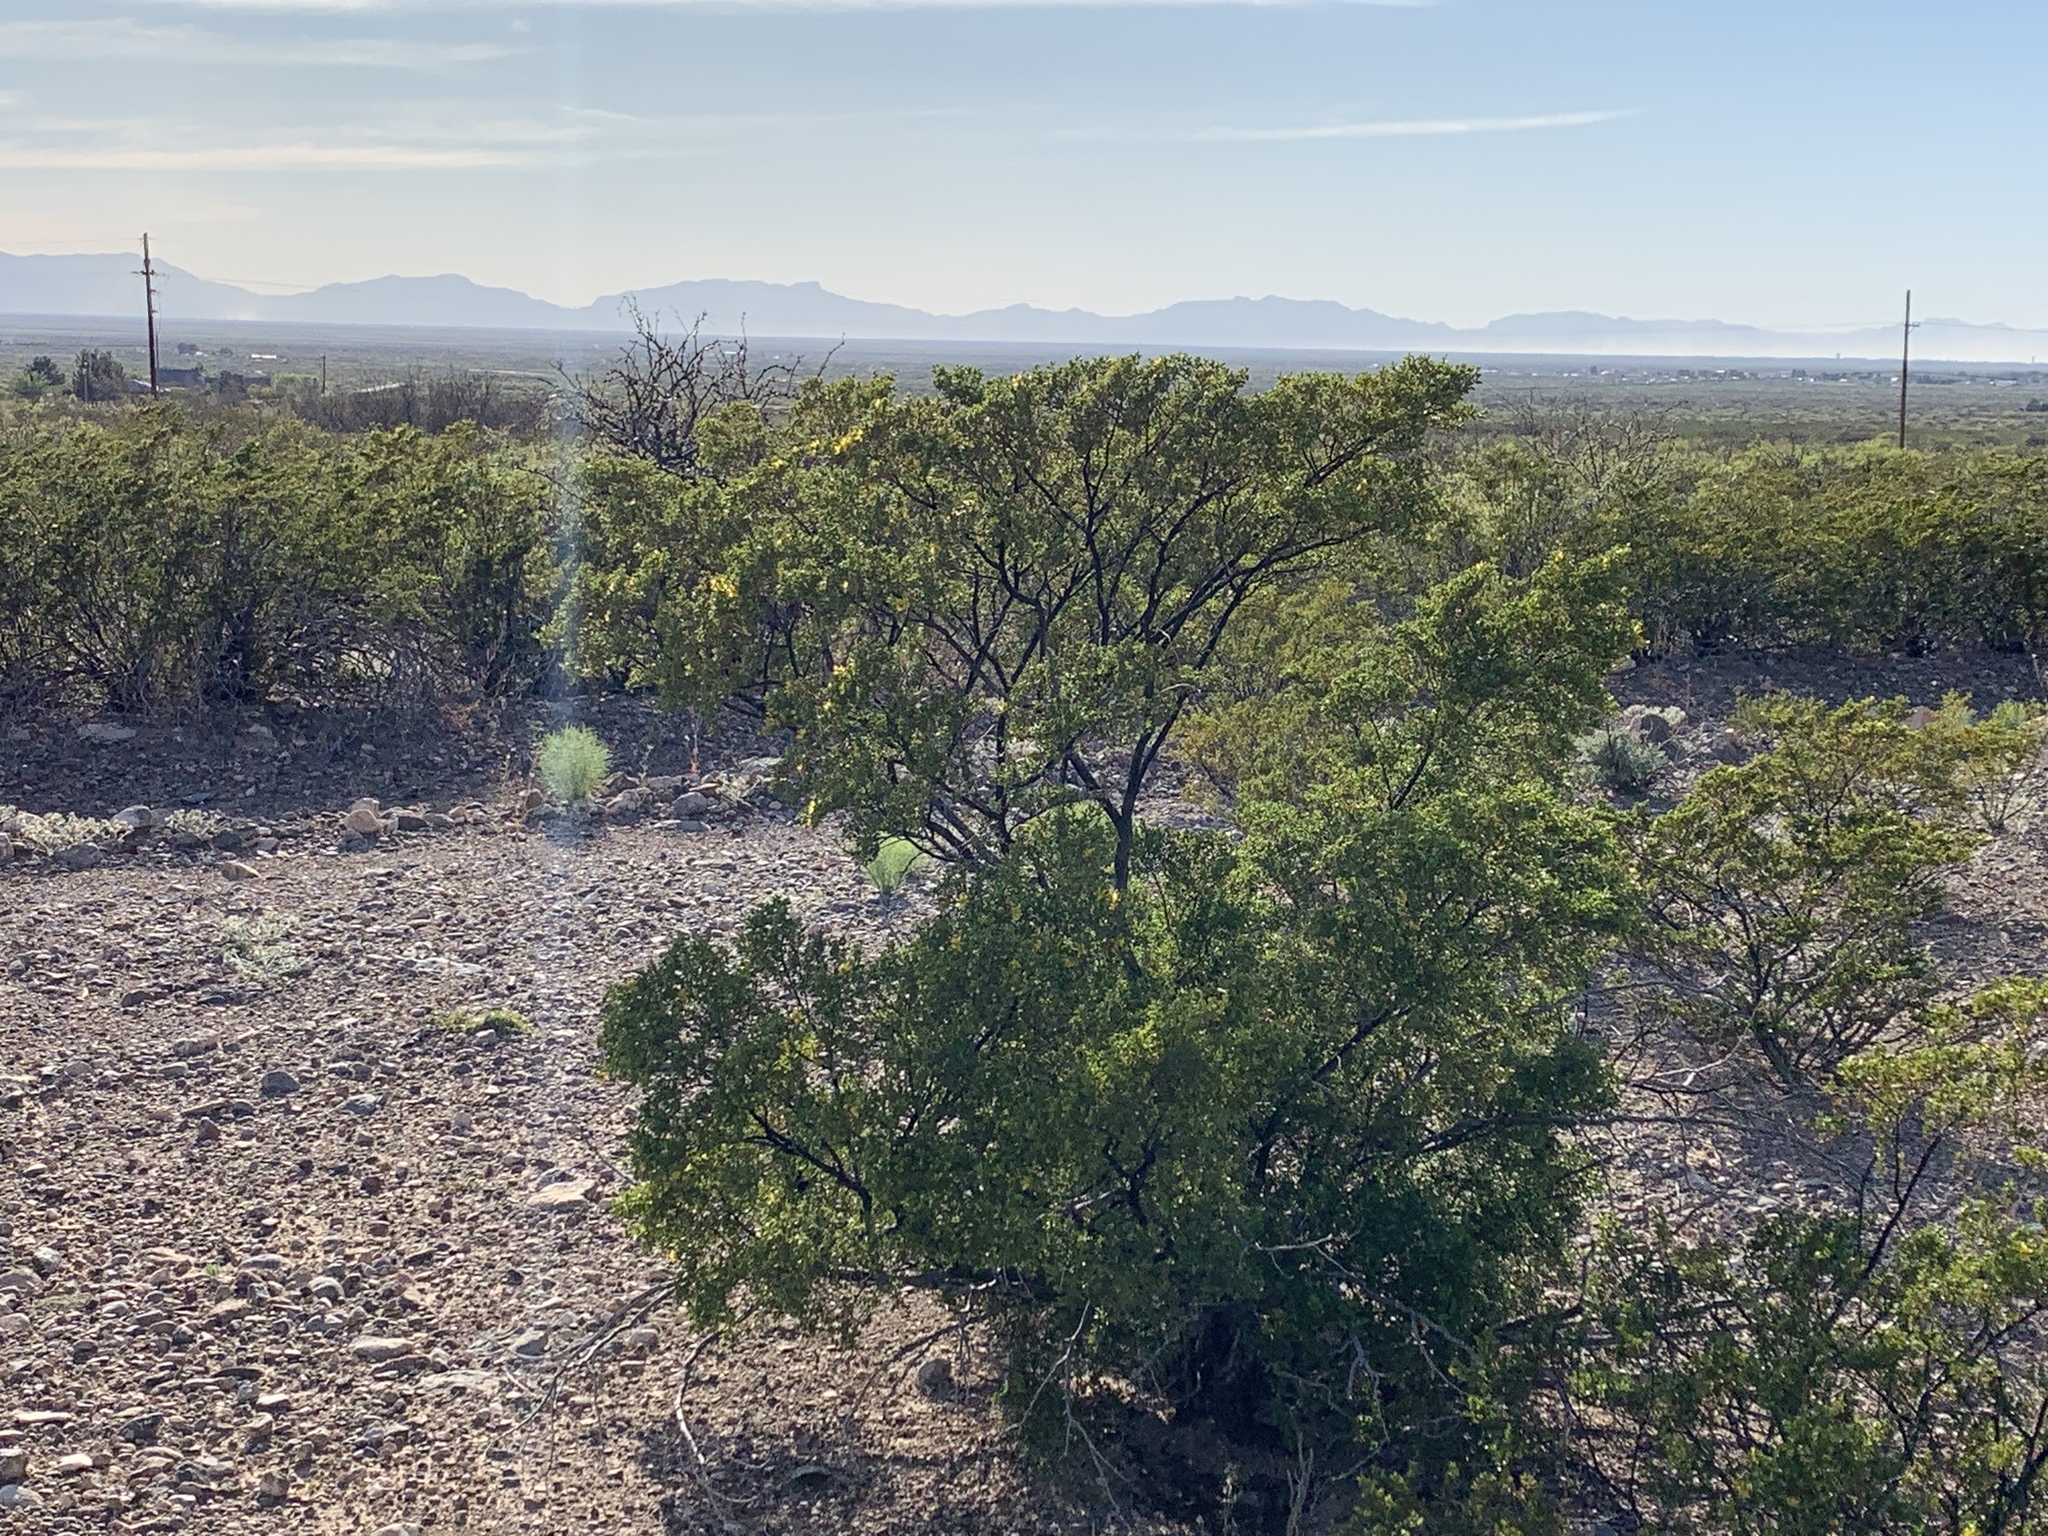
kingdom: Plantae
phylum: Tracheophyta
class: Magnoliopsida
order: Zygophyllales
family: Zygophyllaceae
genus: Larrea
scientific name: Larrea tridentata
